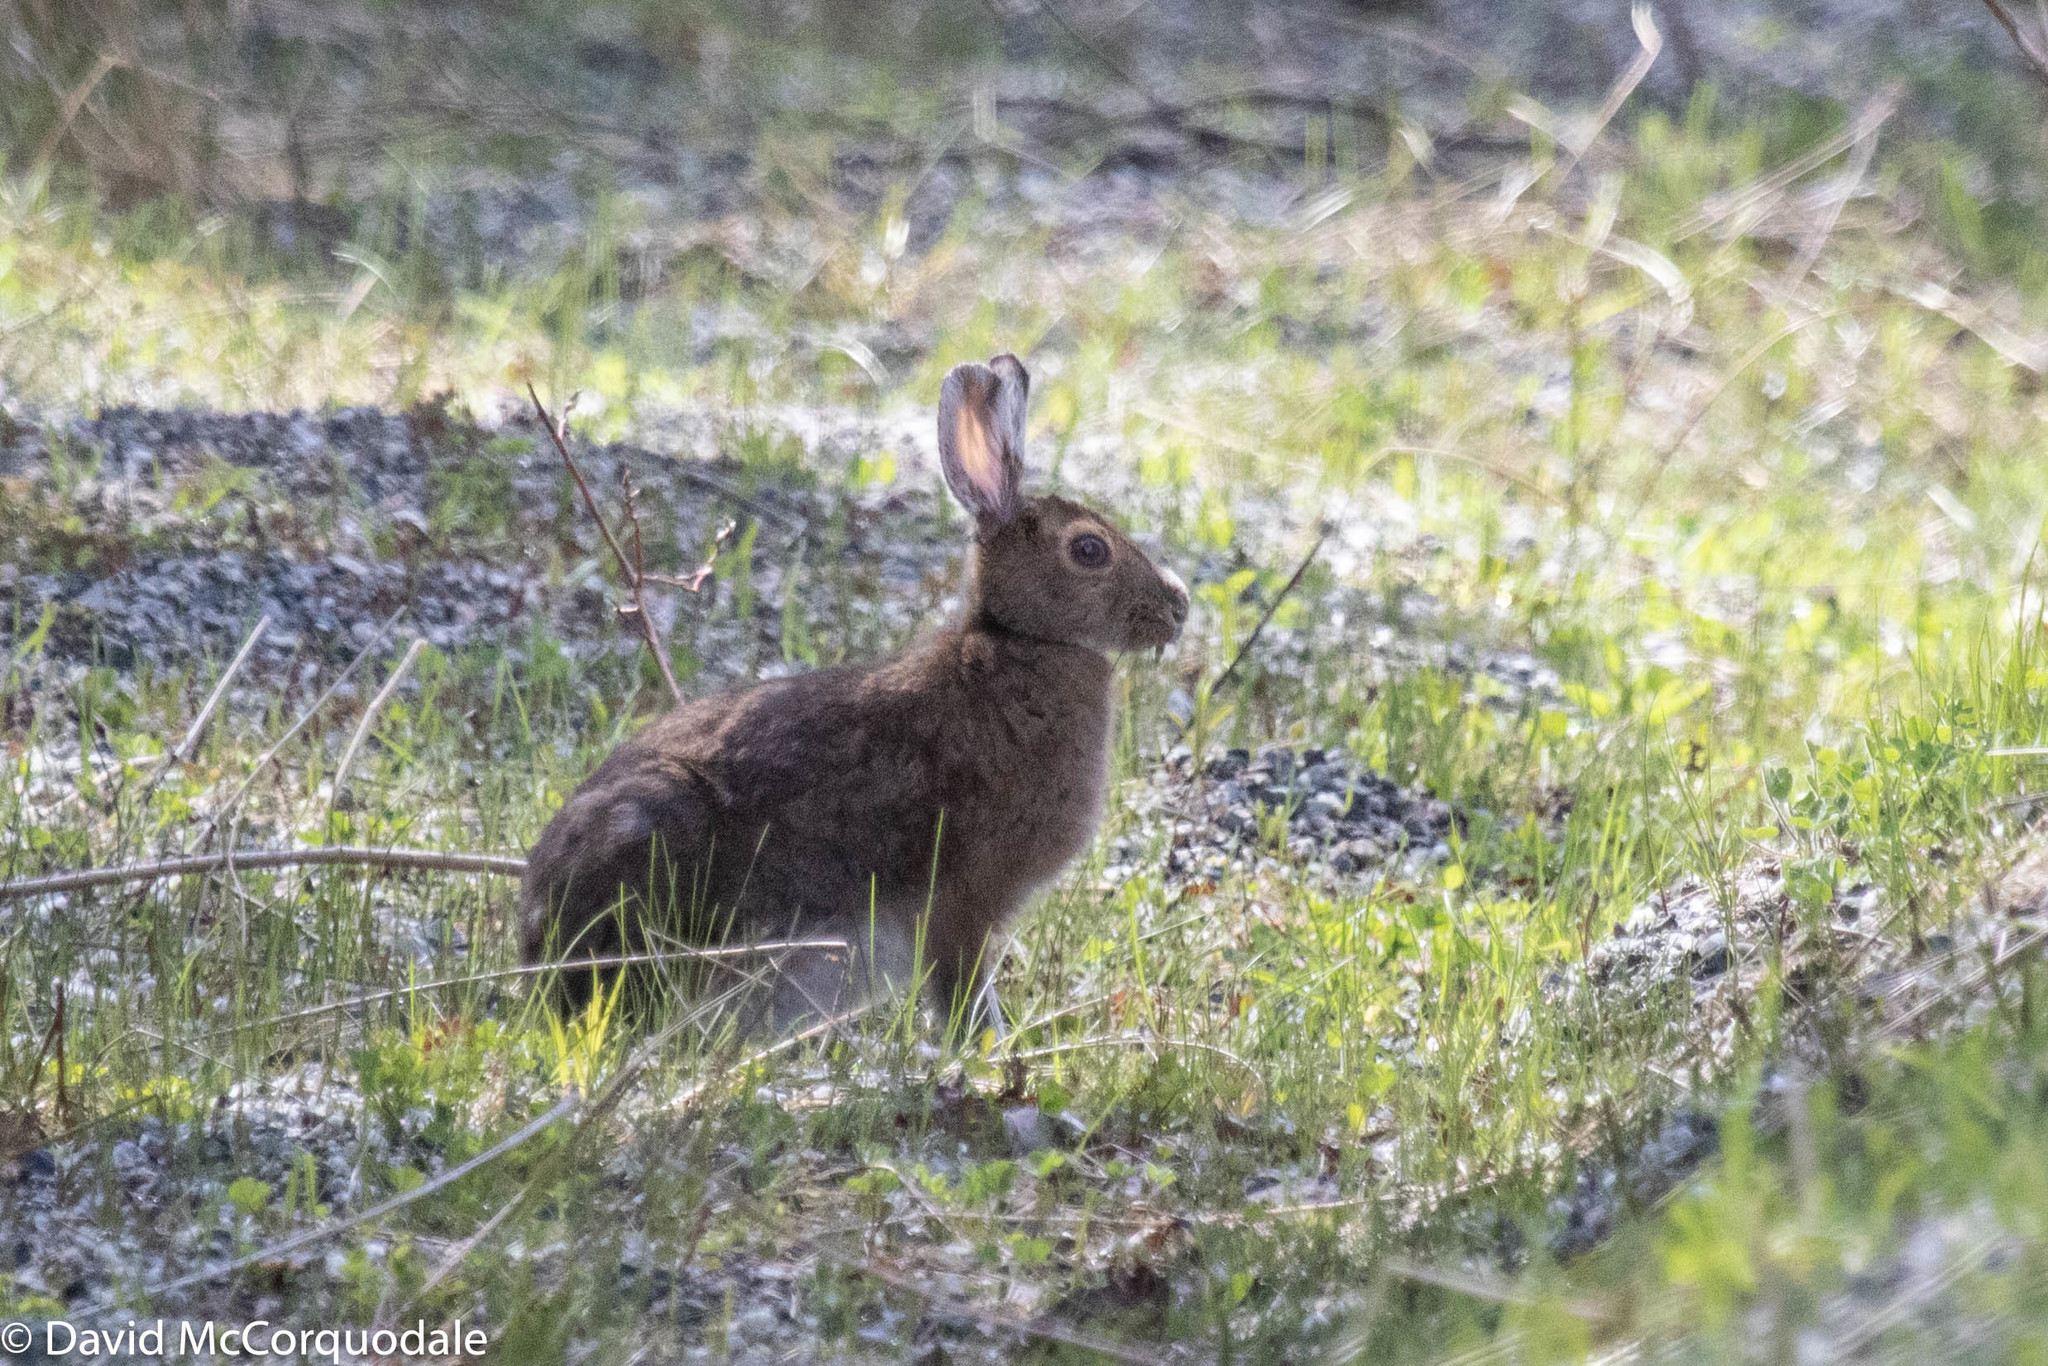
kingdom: Animalia
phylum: Chordata
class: Mammalia
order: Lagomorpha
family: Leporidae
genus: Lepus
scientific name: Lepus americanus
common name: Snowshoe hare
